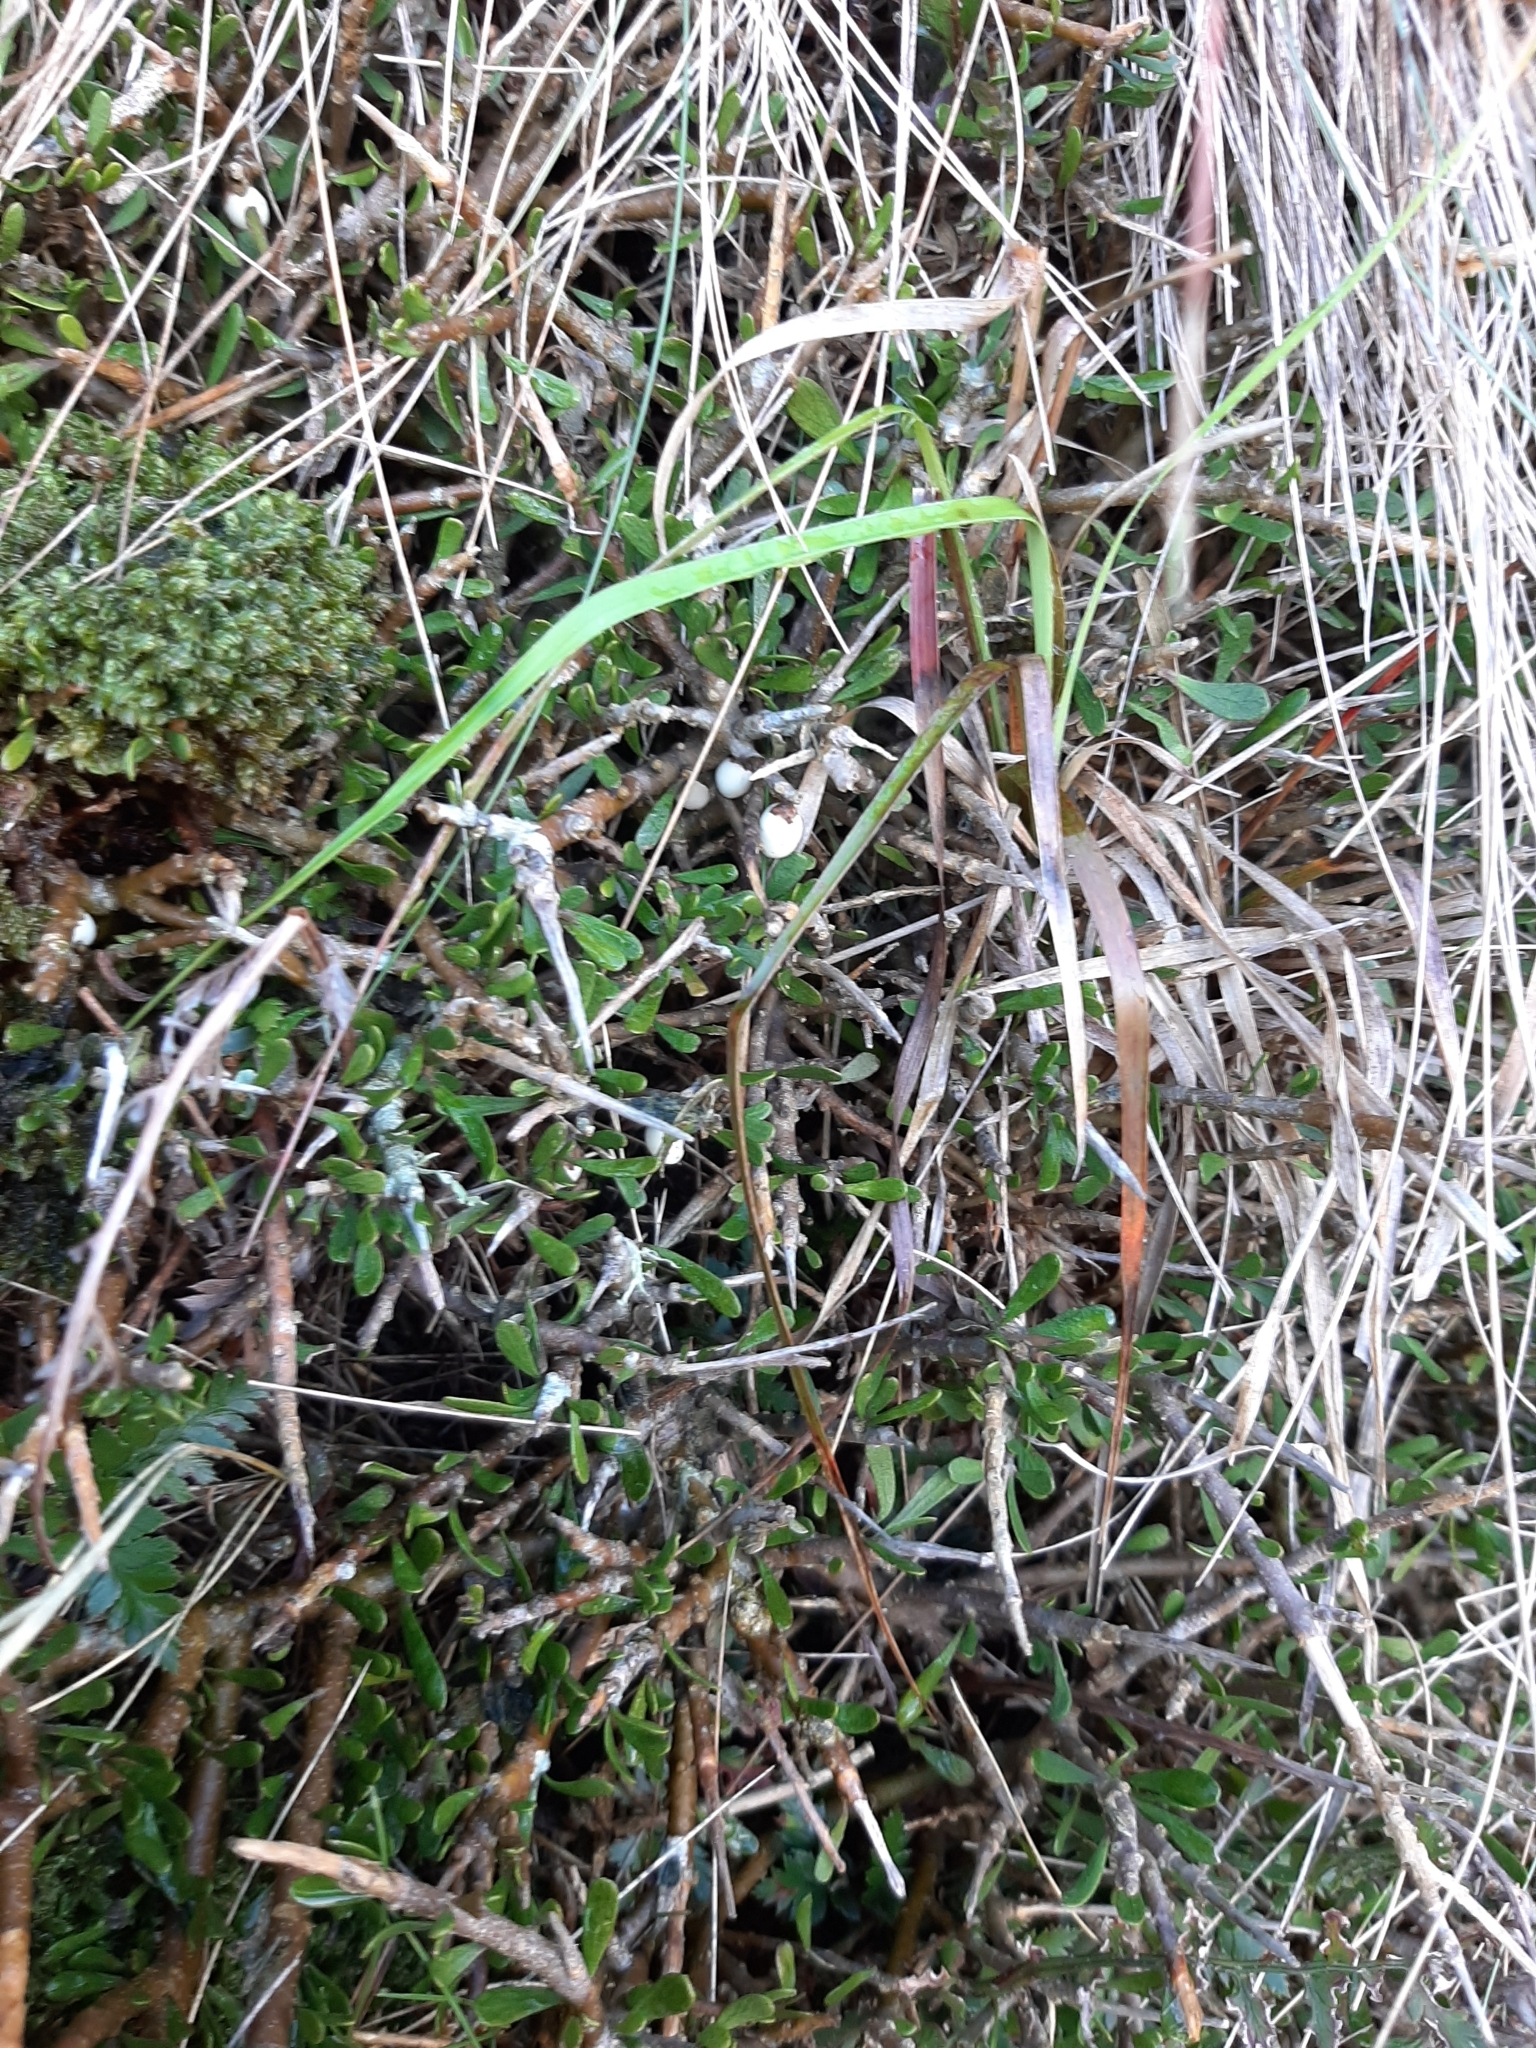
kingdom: Plantae
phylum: Tracheophyta
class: Magnoliopsida
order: Malpighiales
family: Violaceae
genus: Melicytus
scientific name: Melicytus alpinus
